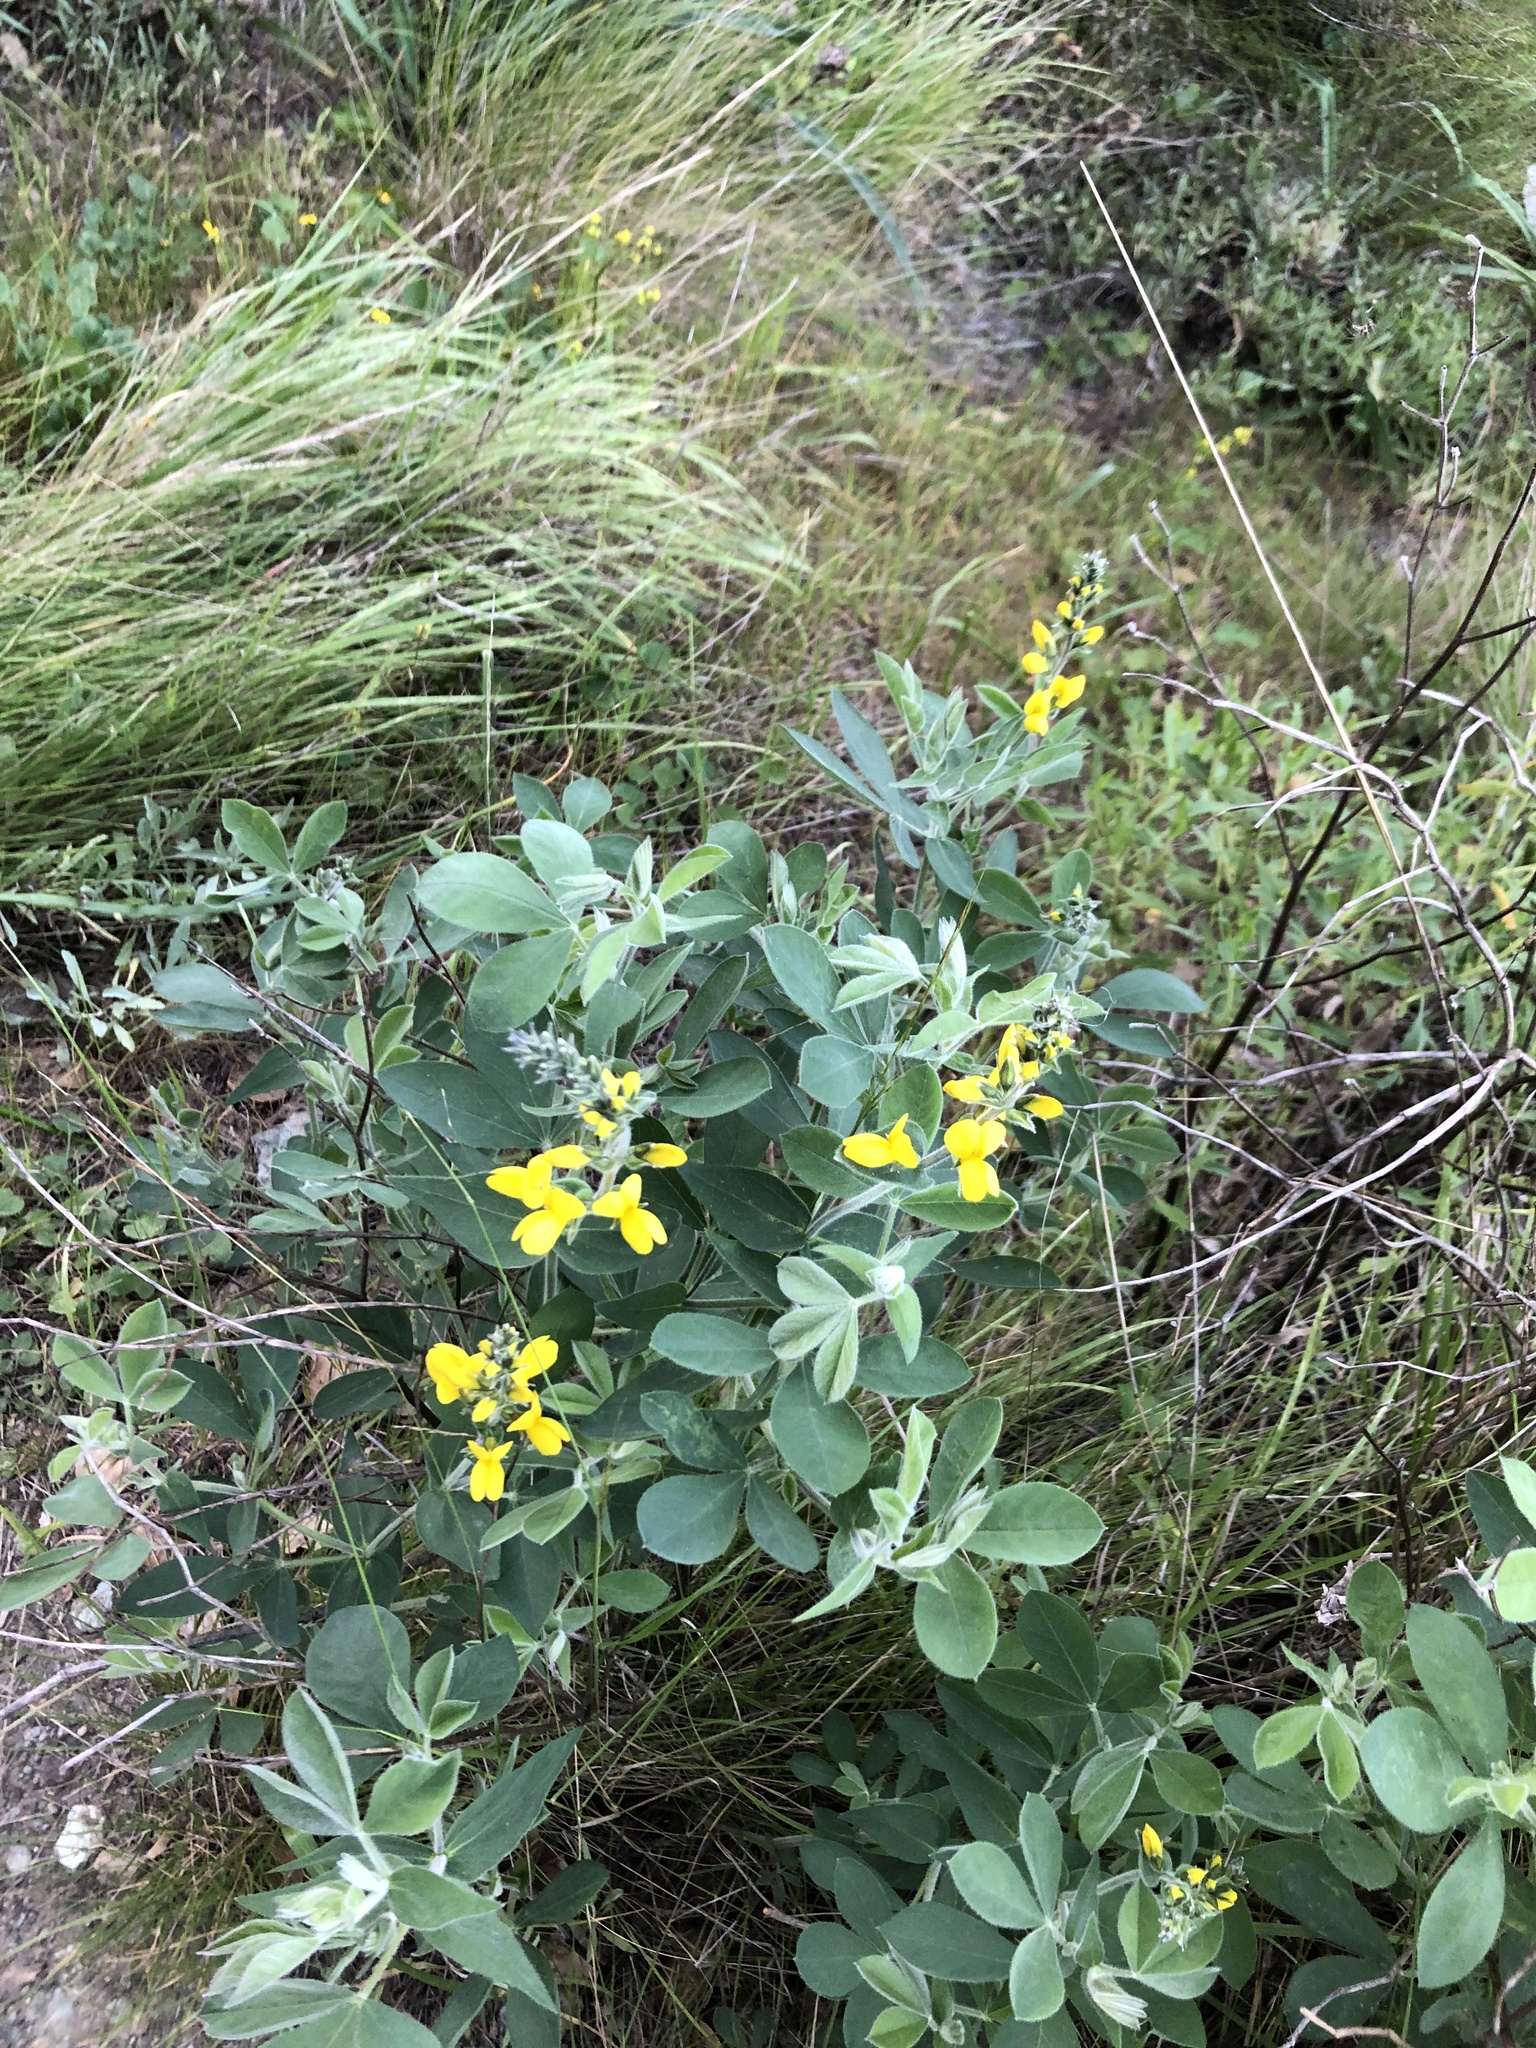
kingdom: Plantae
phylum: Tracheophyta
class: Magnoliopsida
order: Fabales
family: Fabaceae
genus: Thermopsis
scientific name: Thermopsis californica
